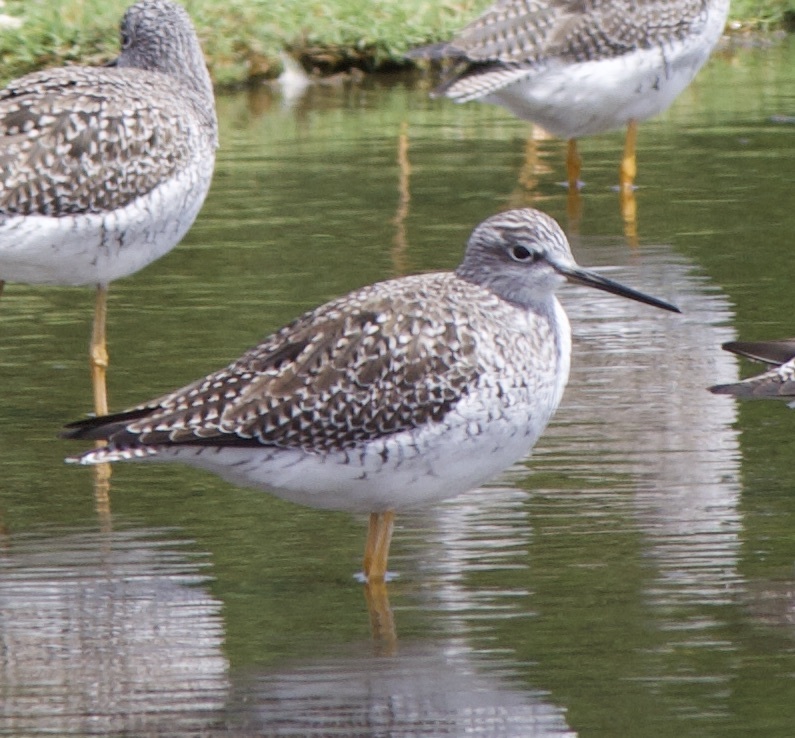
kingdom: Animalia
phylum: Chordata
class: Aves
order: Charadriiformes
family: Scolopacidae
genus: Tringa
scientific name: Tringa melanoleuca
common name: Greater yellowlegs
